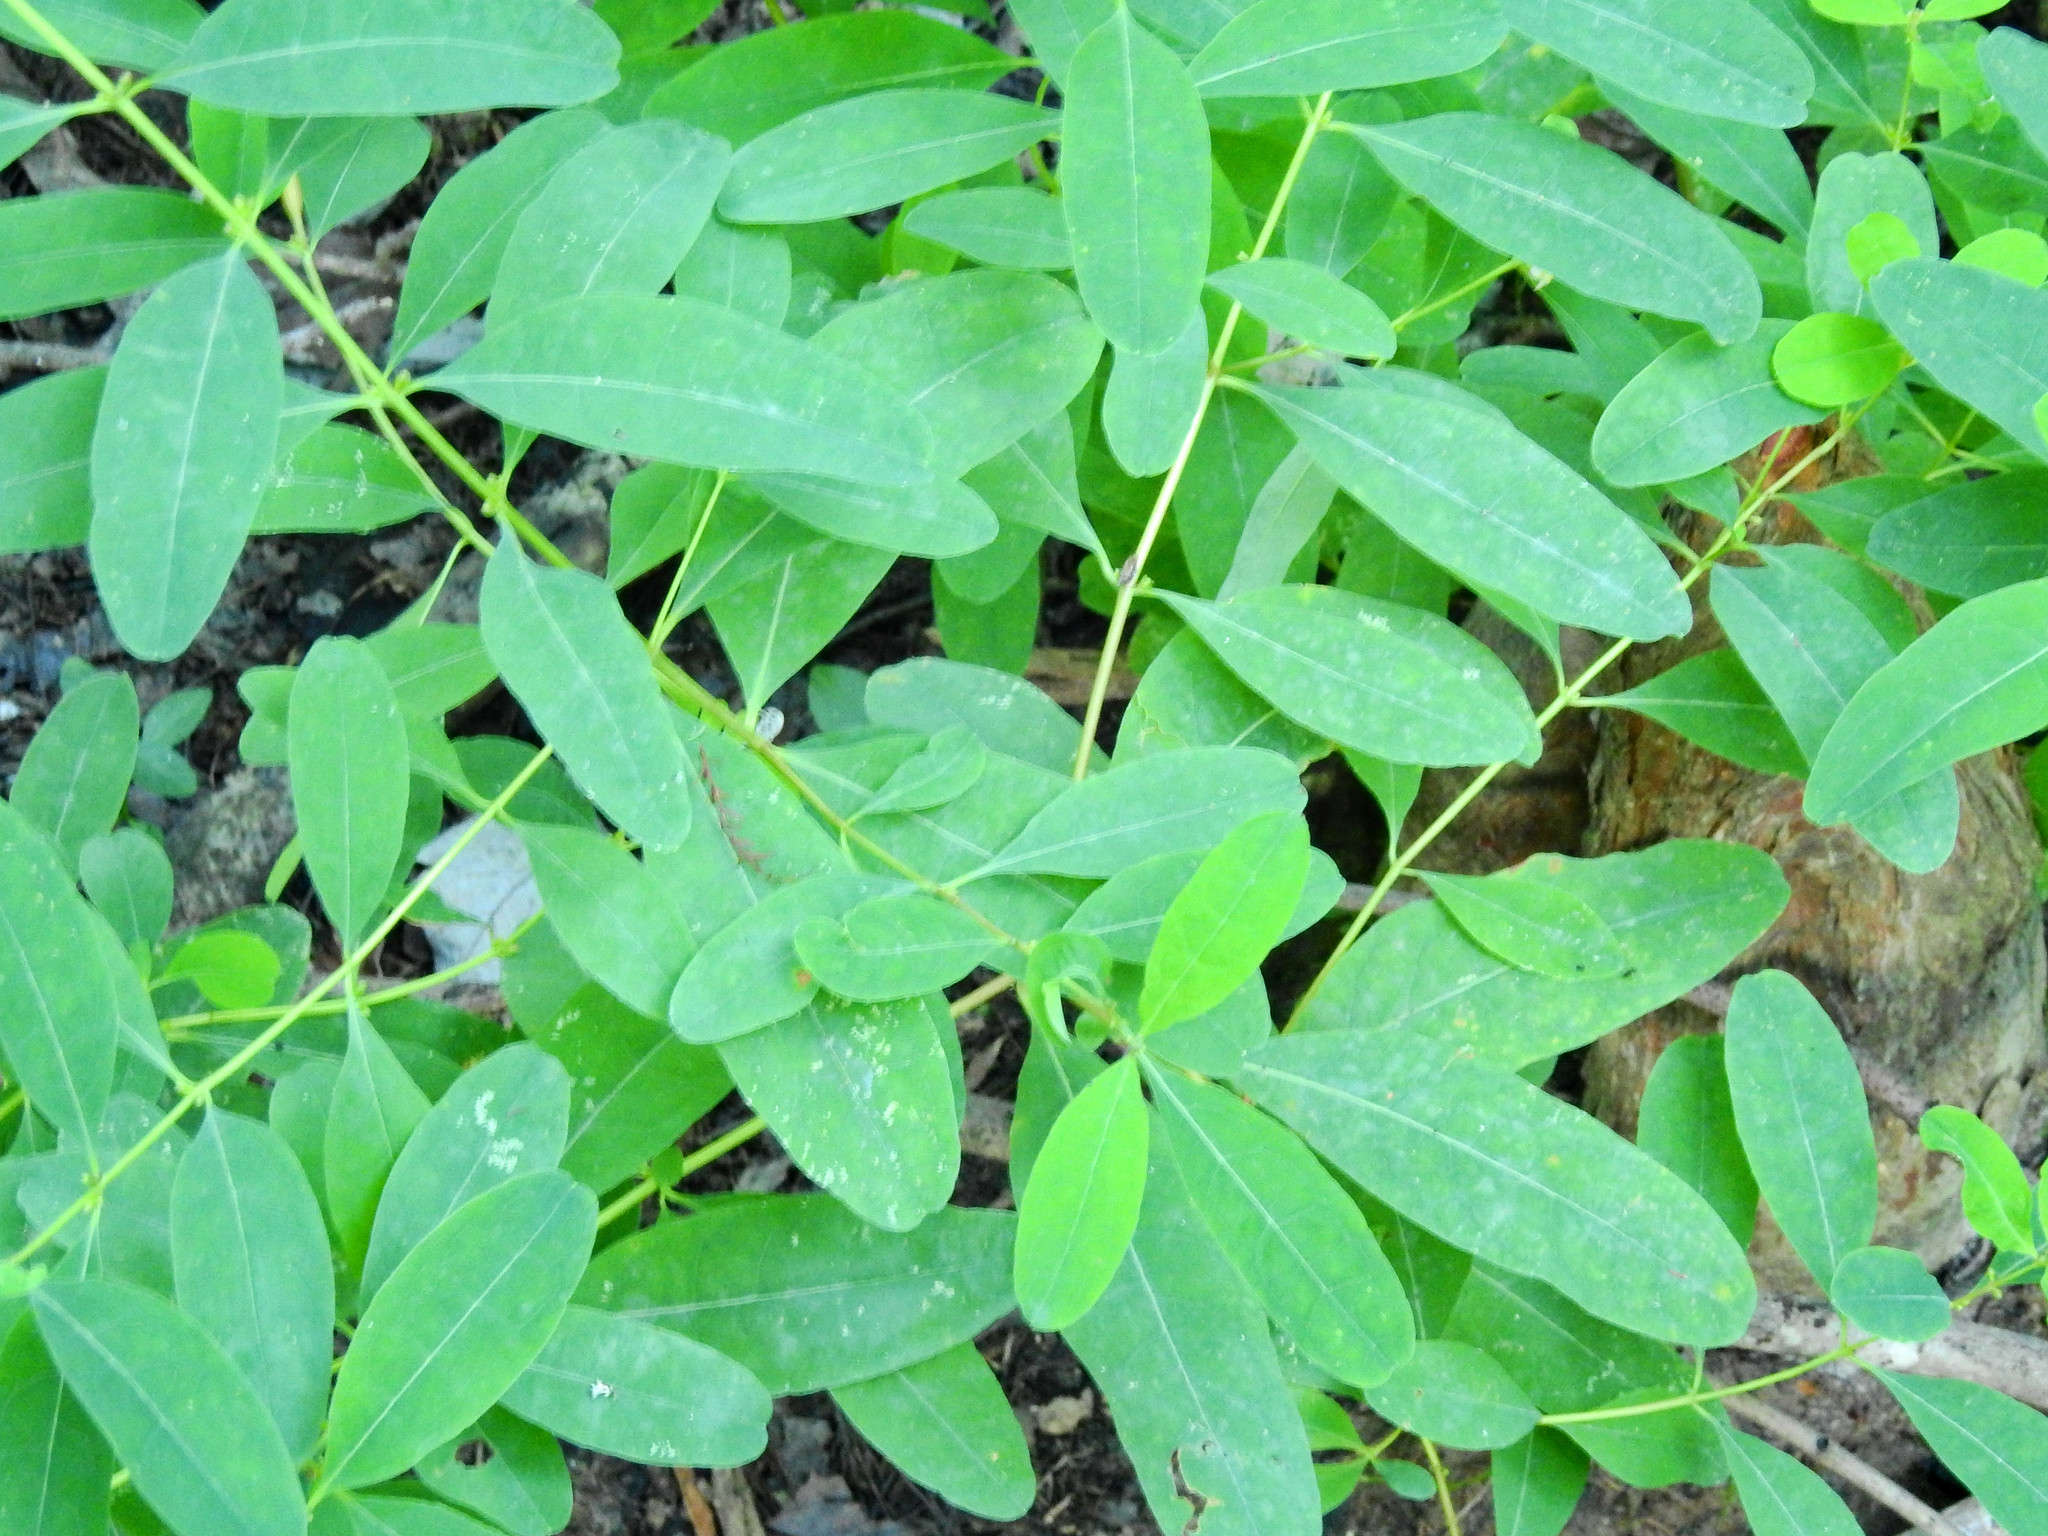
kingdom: Plantae
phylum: Tracheophyta
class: Magnoliopsida
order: Malpighiales
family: Hypericaceae
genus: Triadenum
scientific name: Triadenum walteri
